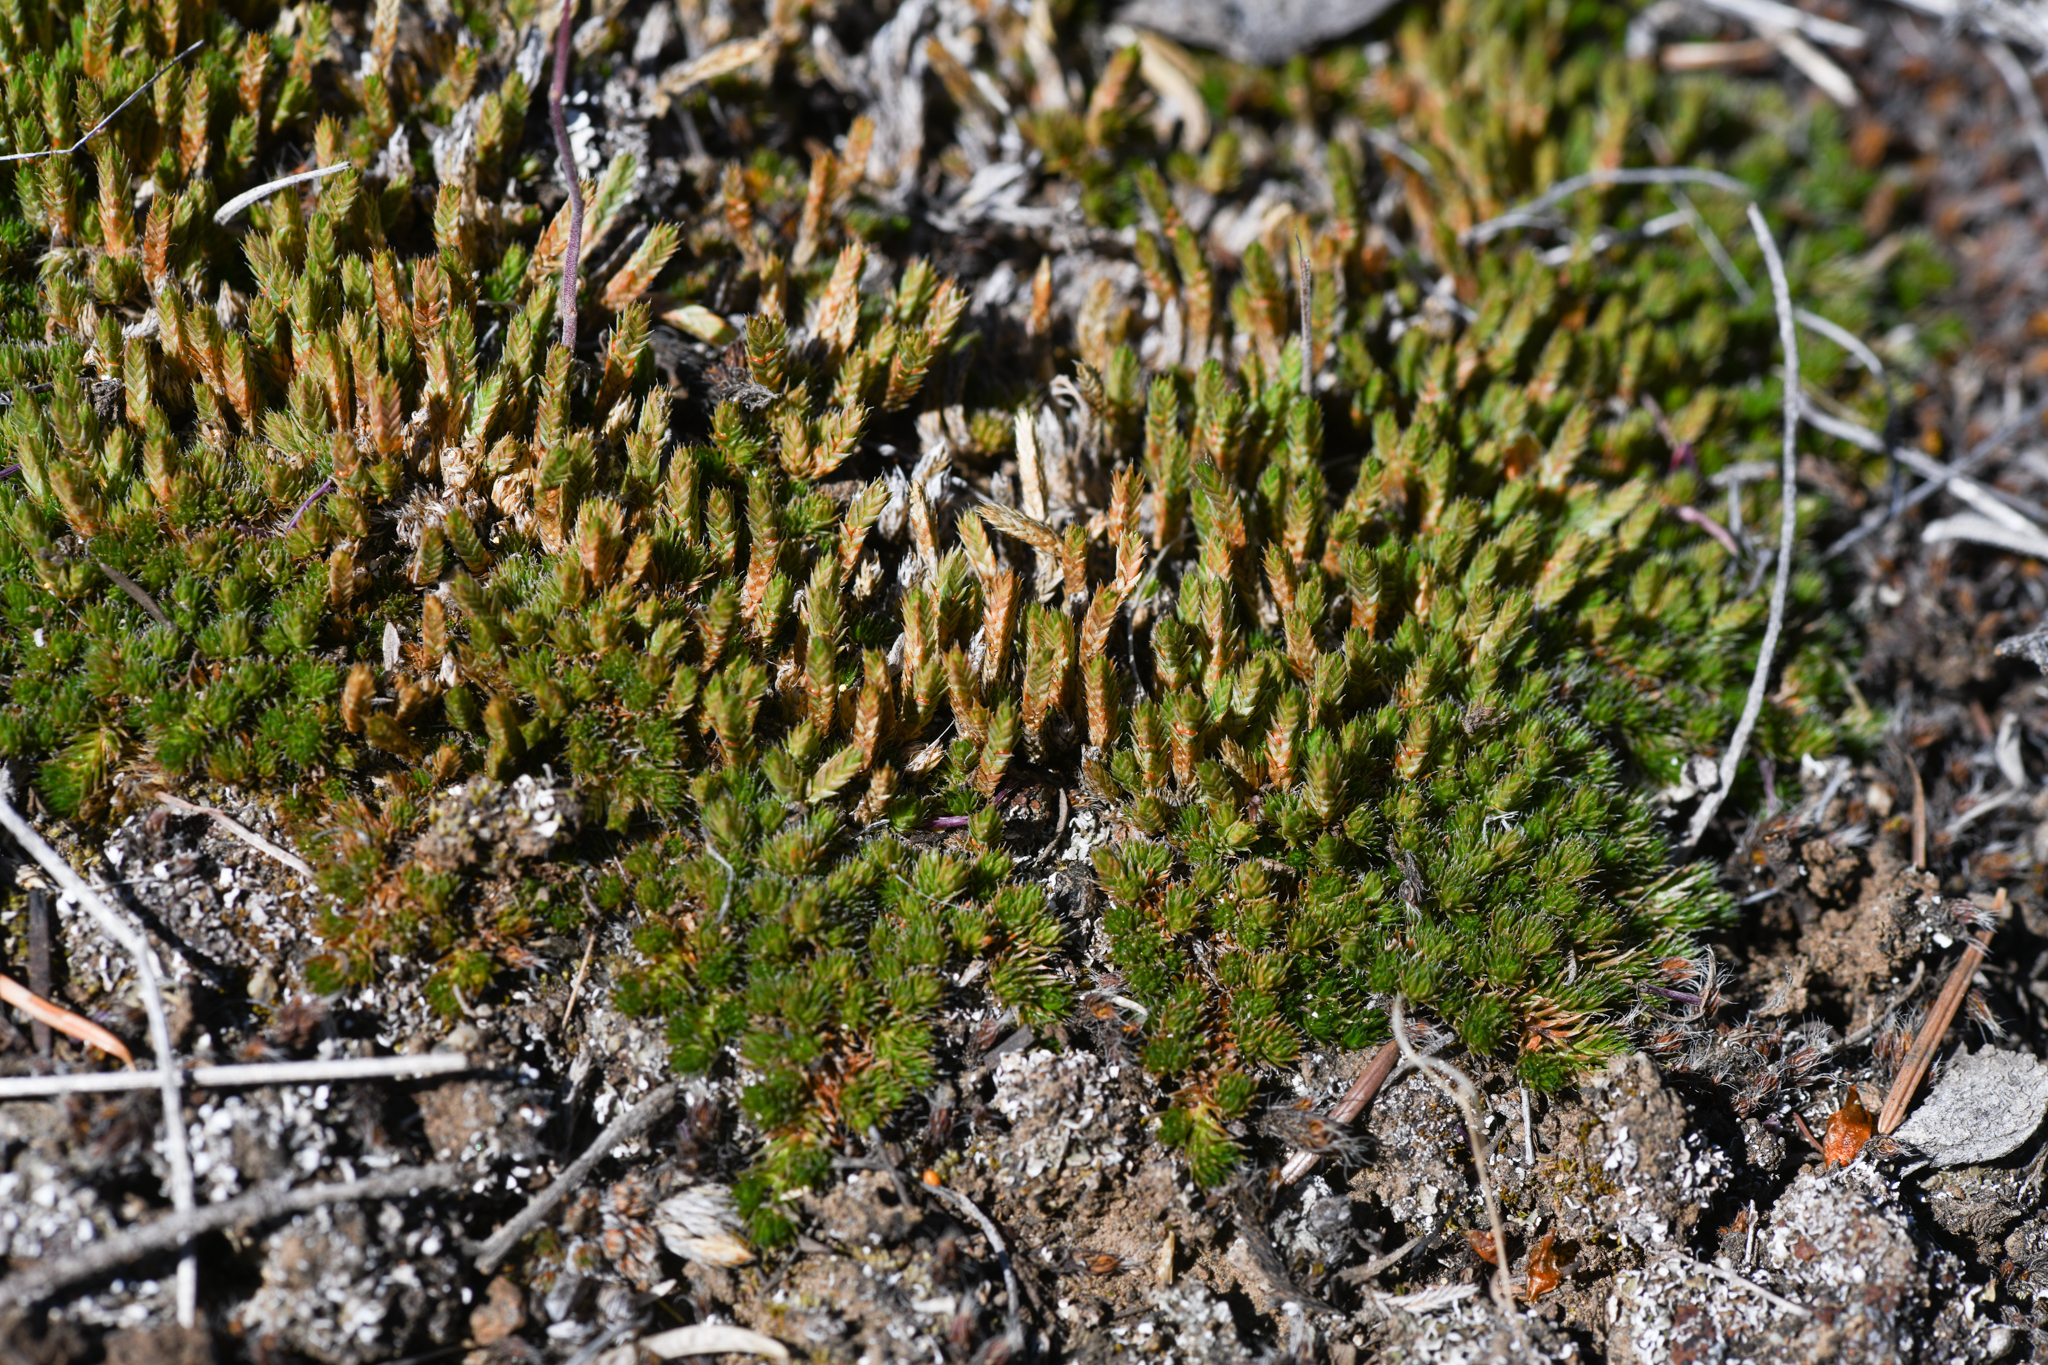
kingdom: Plantae
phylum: Tracheophyta
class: Lycopodiopsida
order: Selaginellales
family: Selaginellaceae
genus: Selaginella
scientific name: Selaginella densa
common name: Mountain spike-moss
